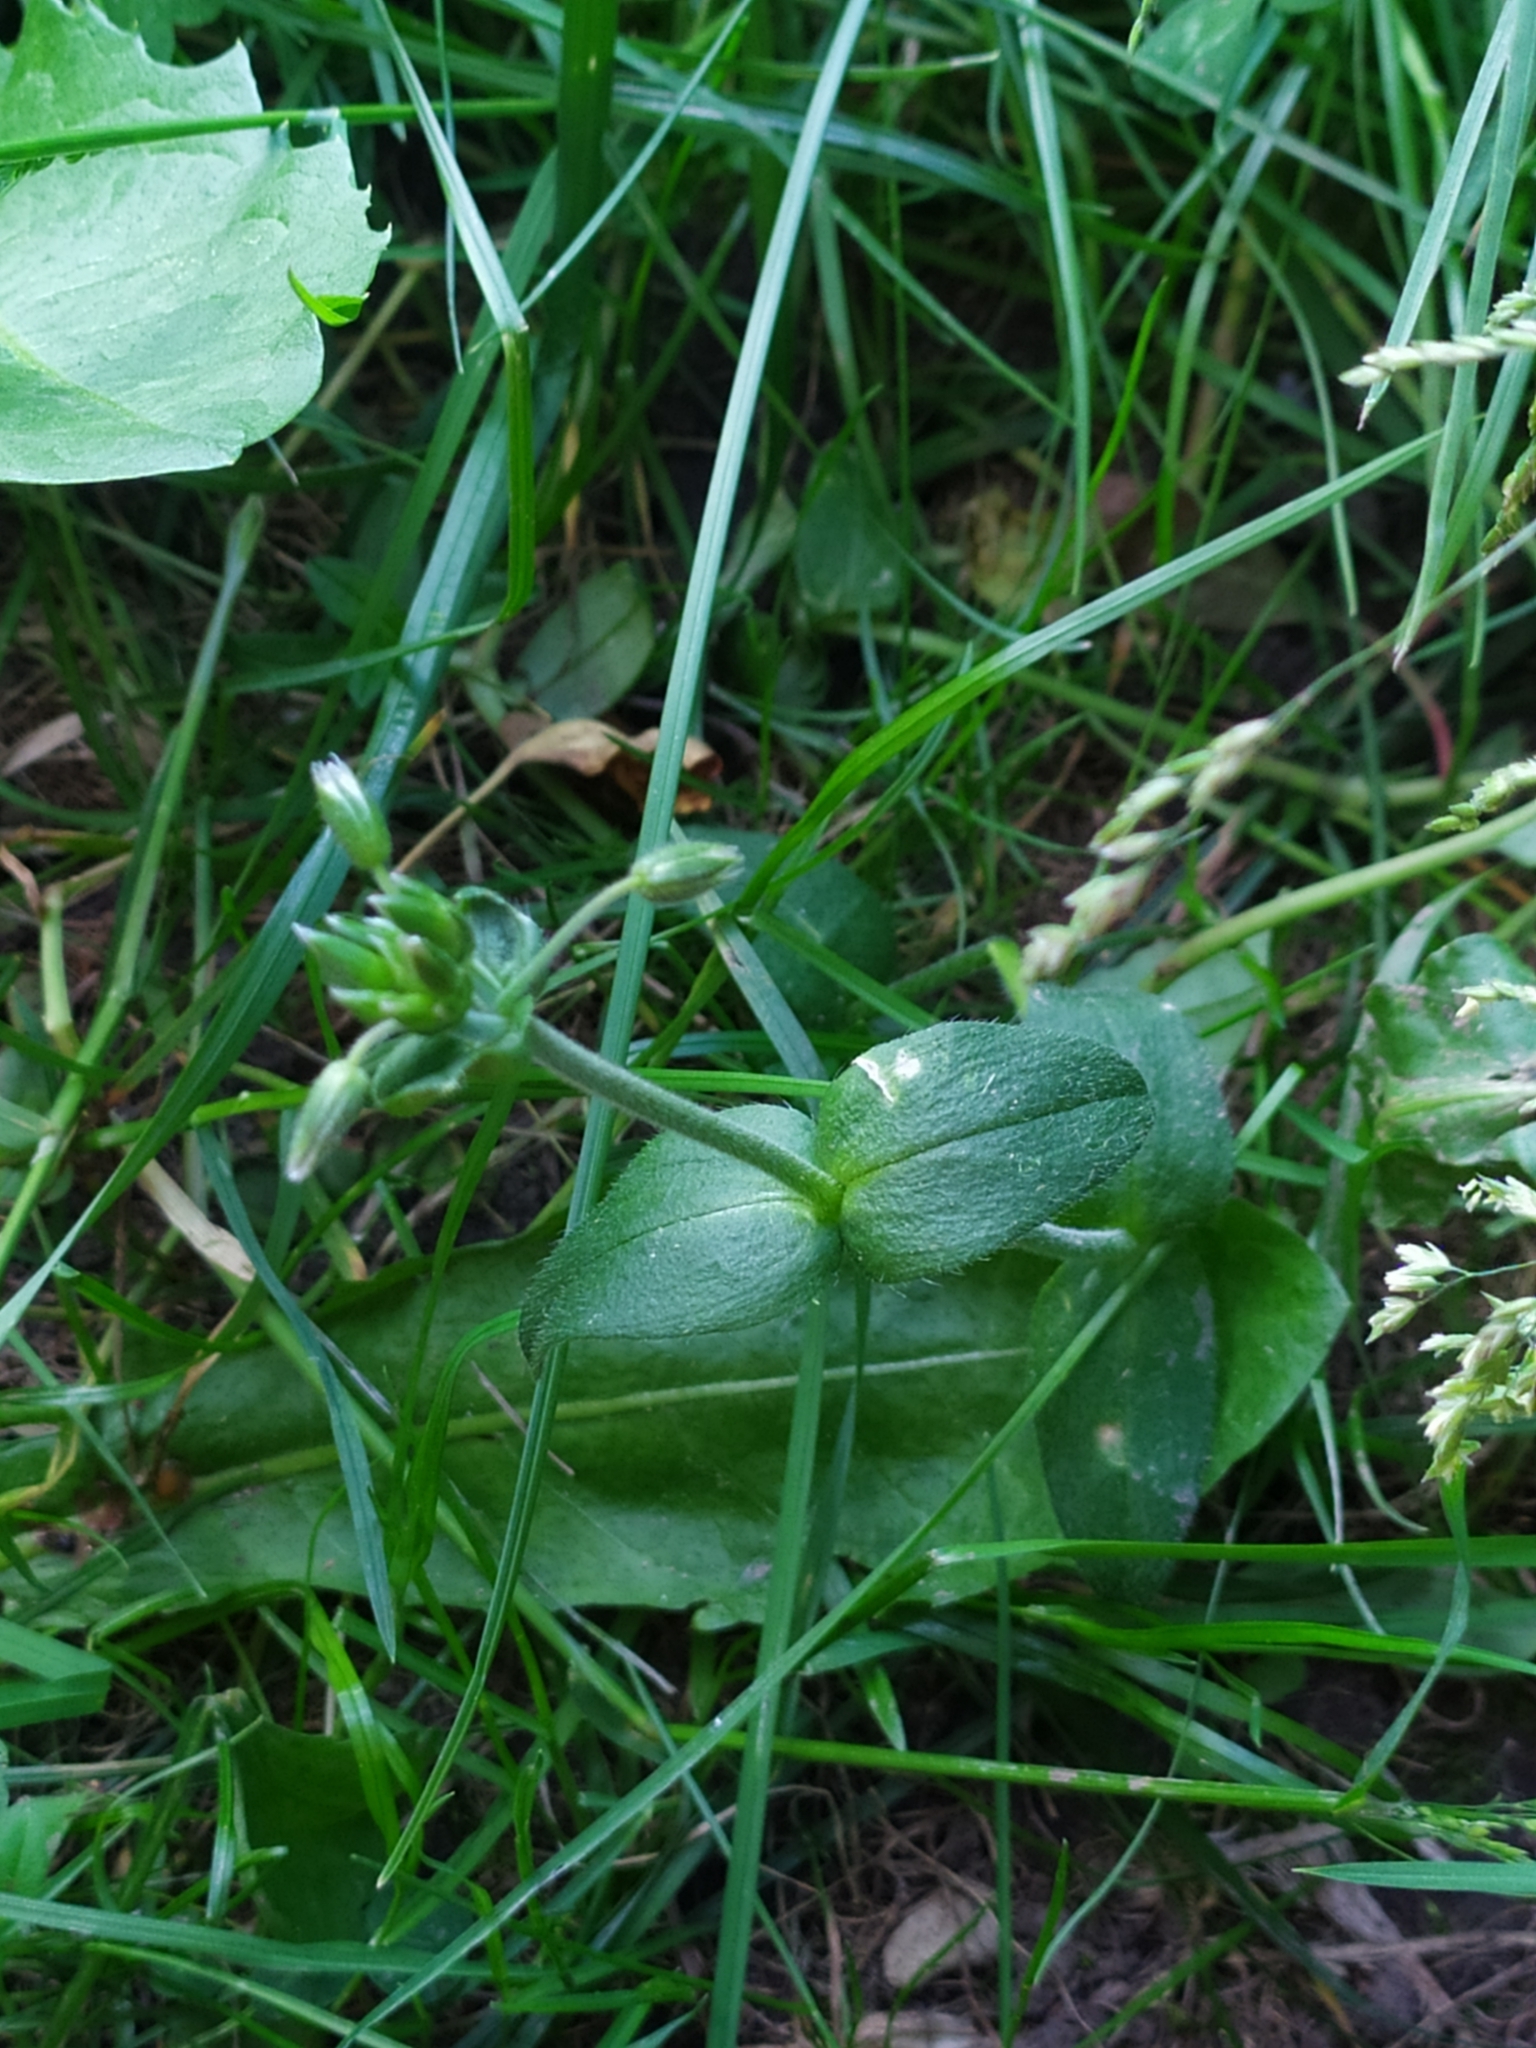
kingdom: Plantae
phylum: Tracheophyta
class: Magnoliopsida
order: Caryophyllales
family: Caryophyllaceae
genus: Cerastium
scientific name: Cerastium holosteoides
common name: Big chickweed
